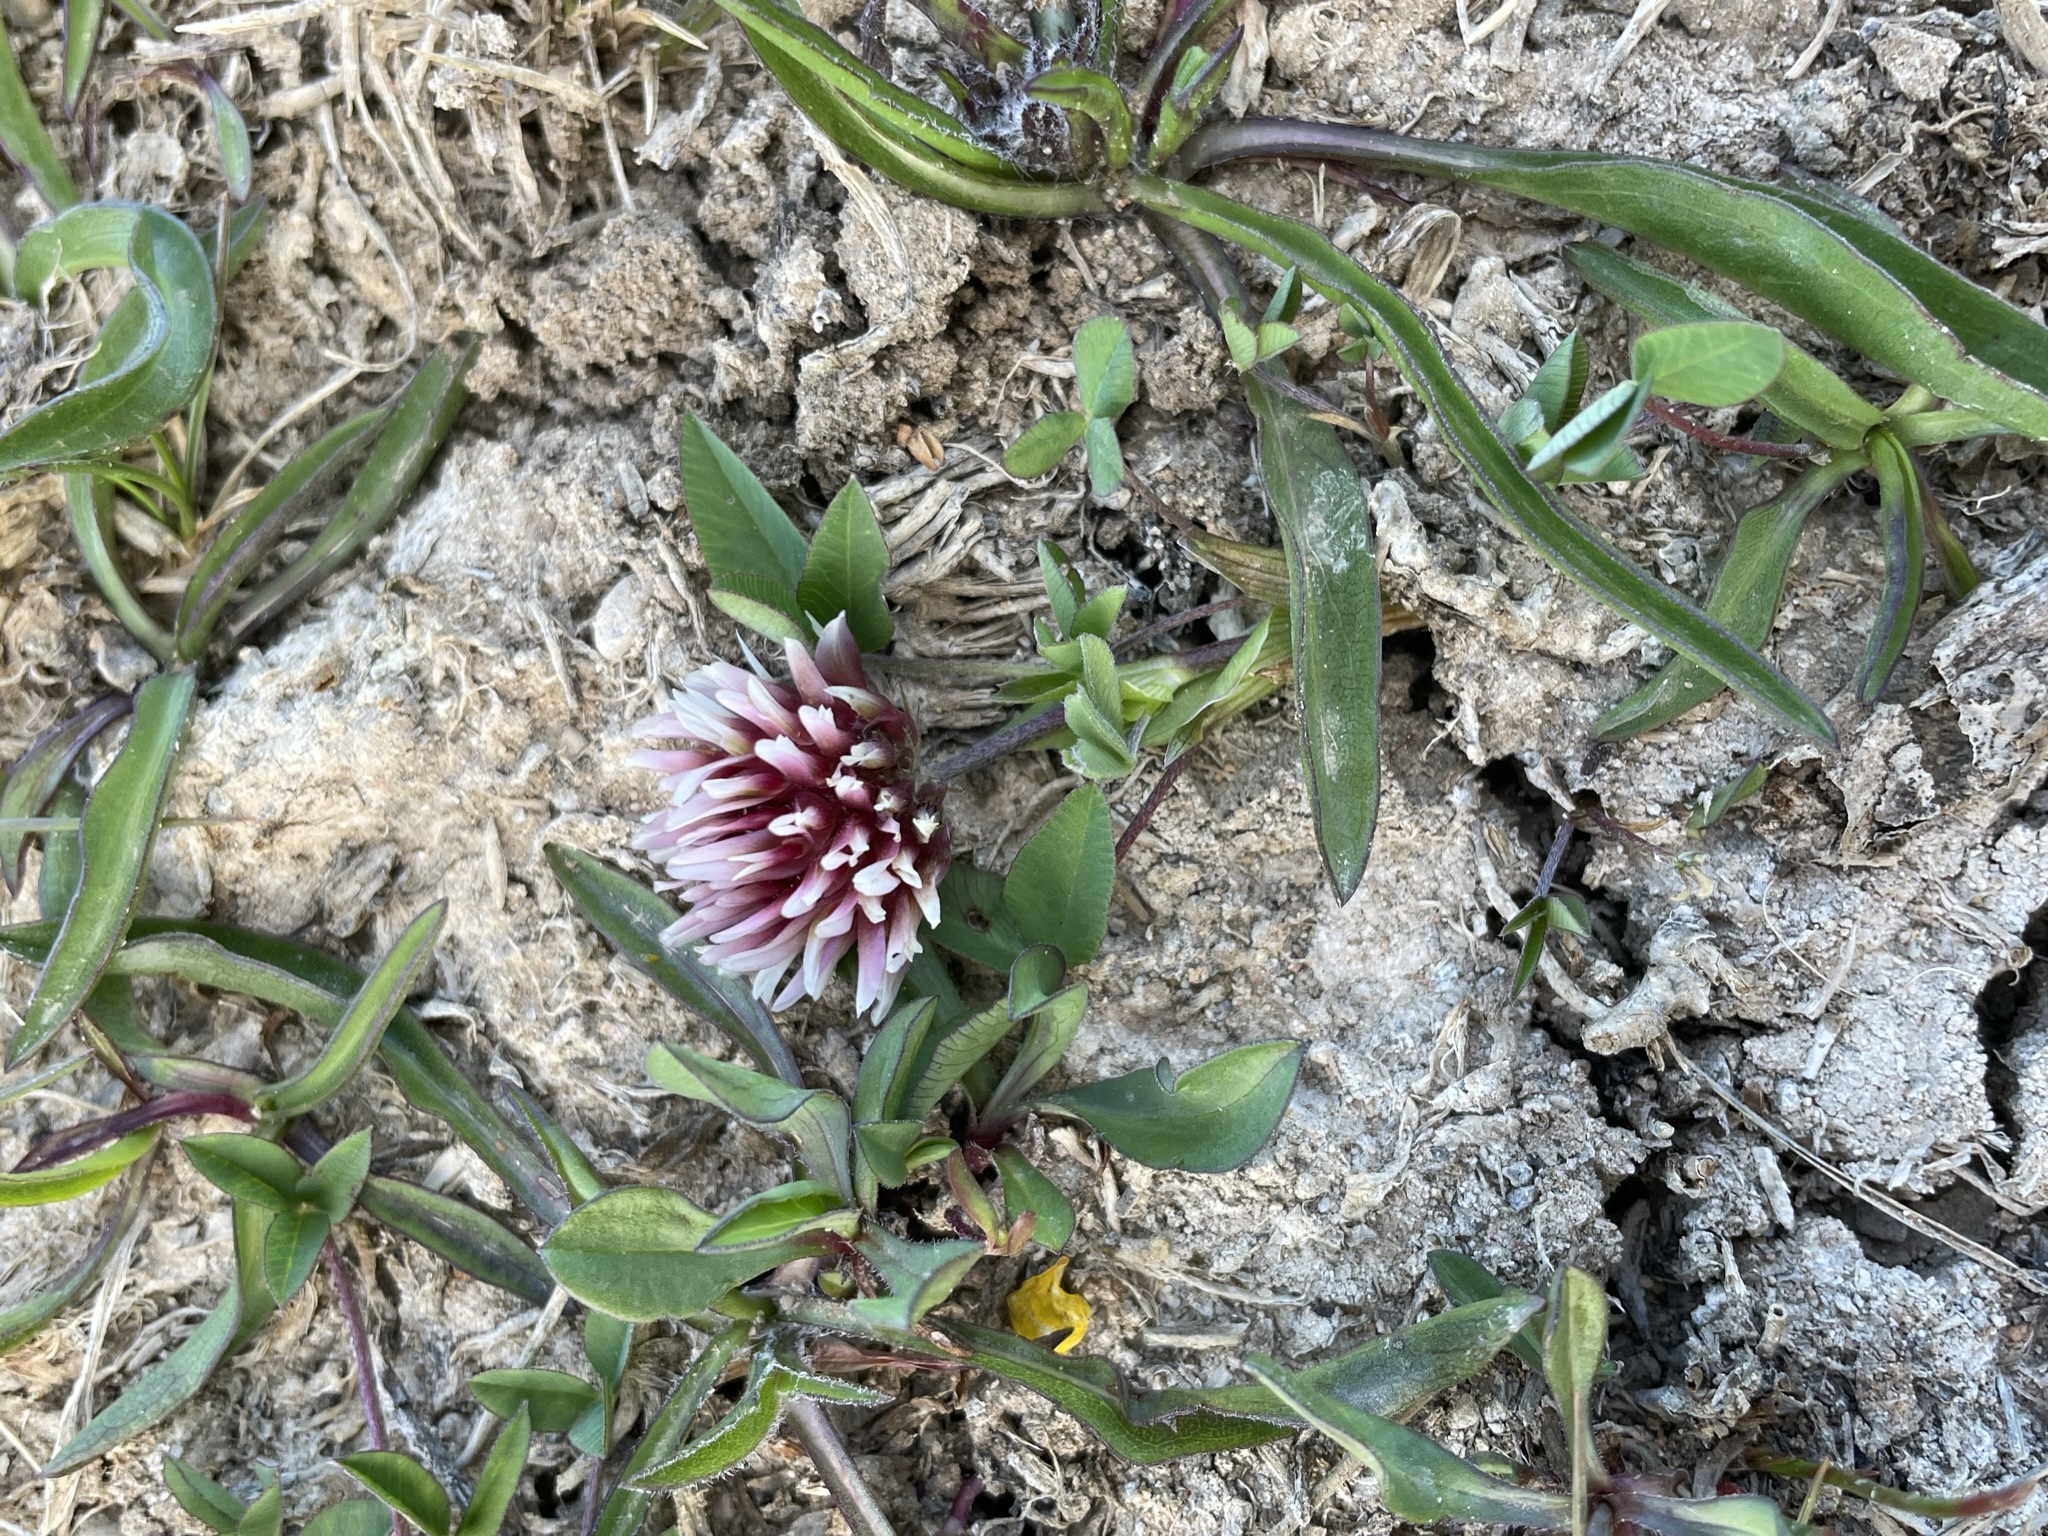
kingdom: Plantae
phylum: Tracheophyta
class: Magnoliopsida
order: Fabales
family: Fabaceae
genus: Trifolium
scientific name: Trifolium longipes
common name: Long-stalk clover
